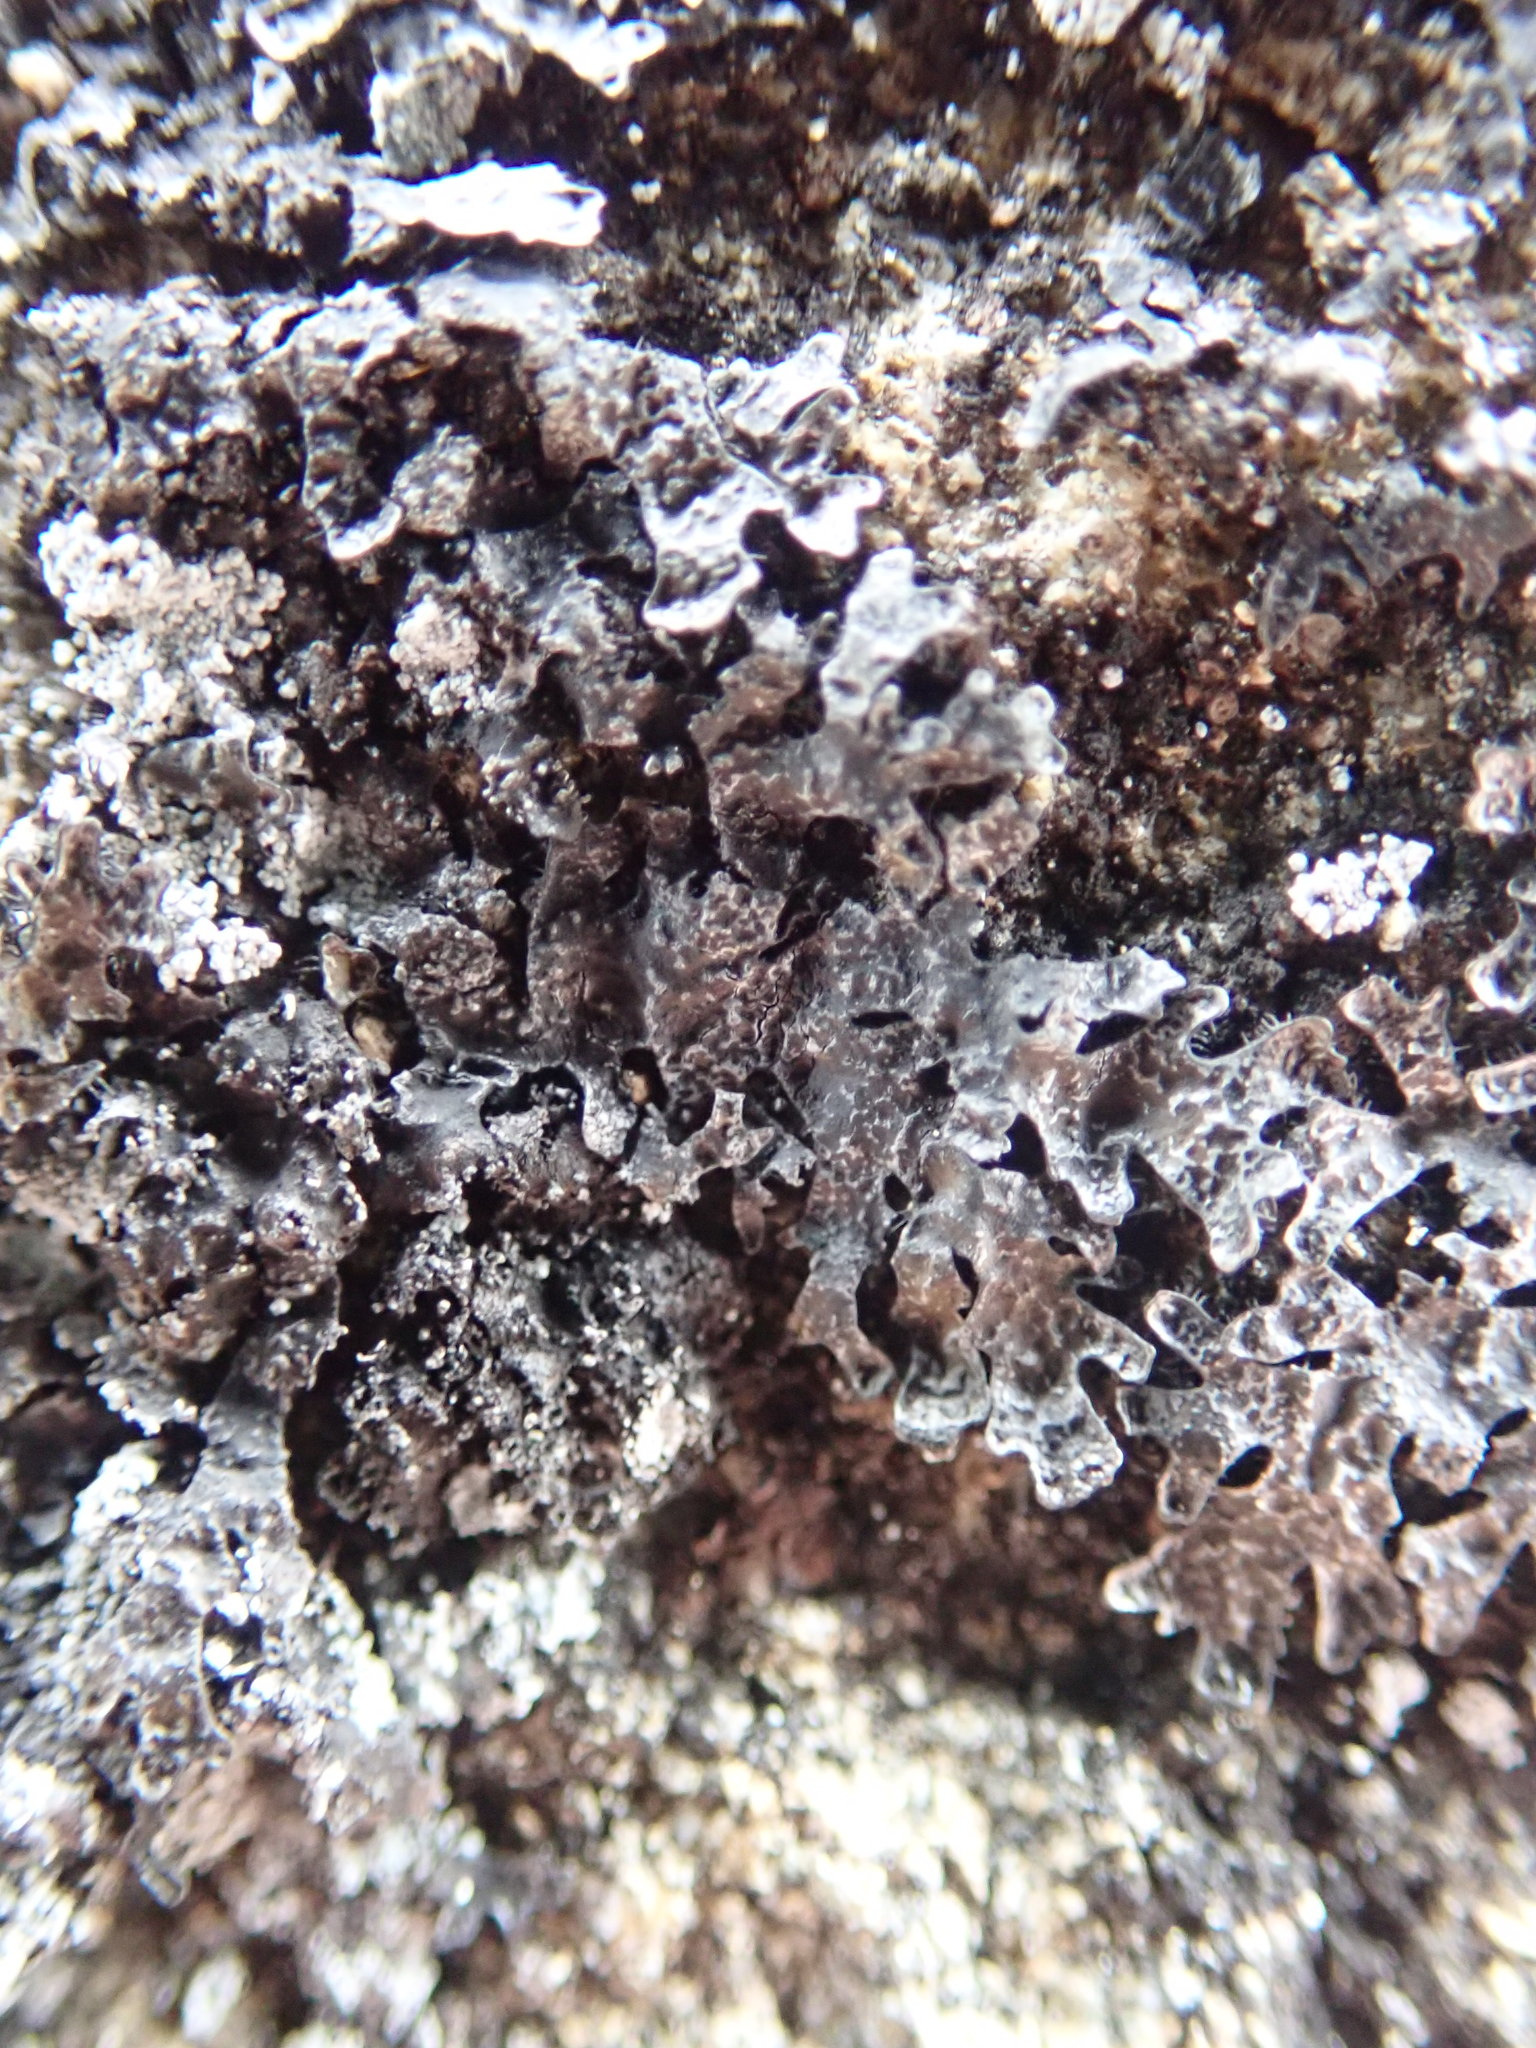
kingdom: Fungi
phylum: Ascomycota
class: Lecanoromycetes
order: Lecanorales
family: Parmeliaceae
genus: Parmelia
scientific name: Parmelia saxatilis
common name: Salted shield lichen
